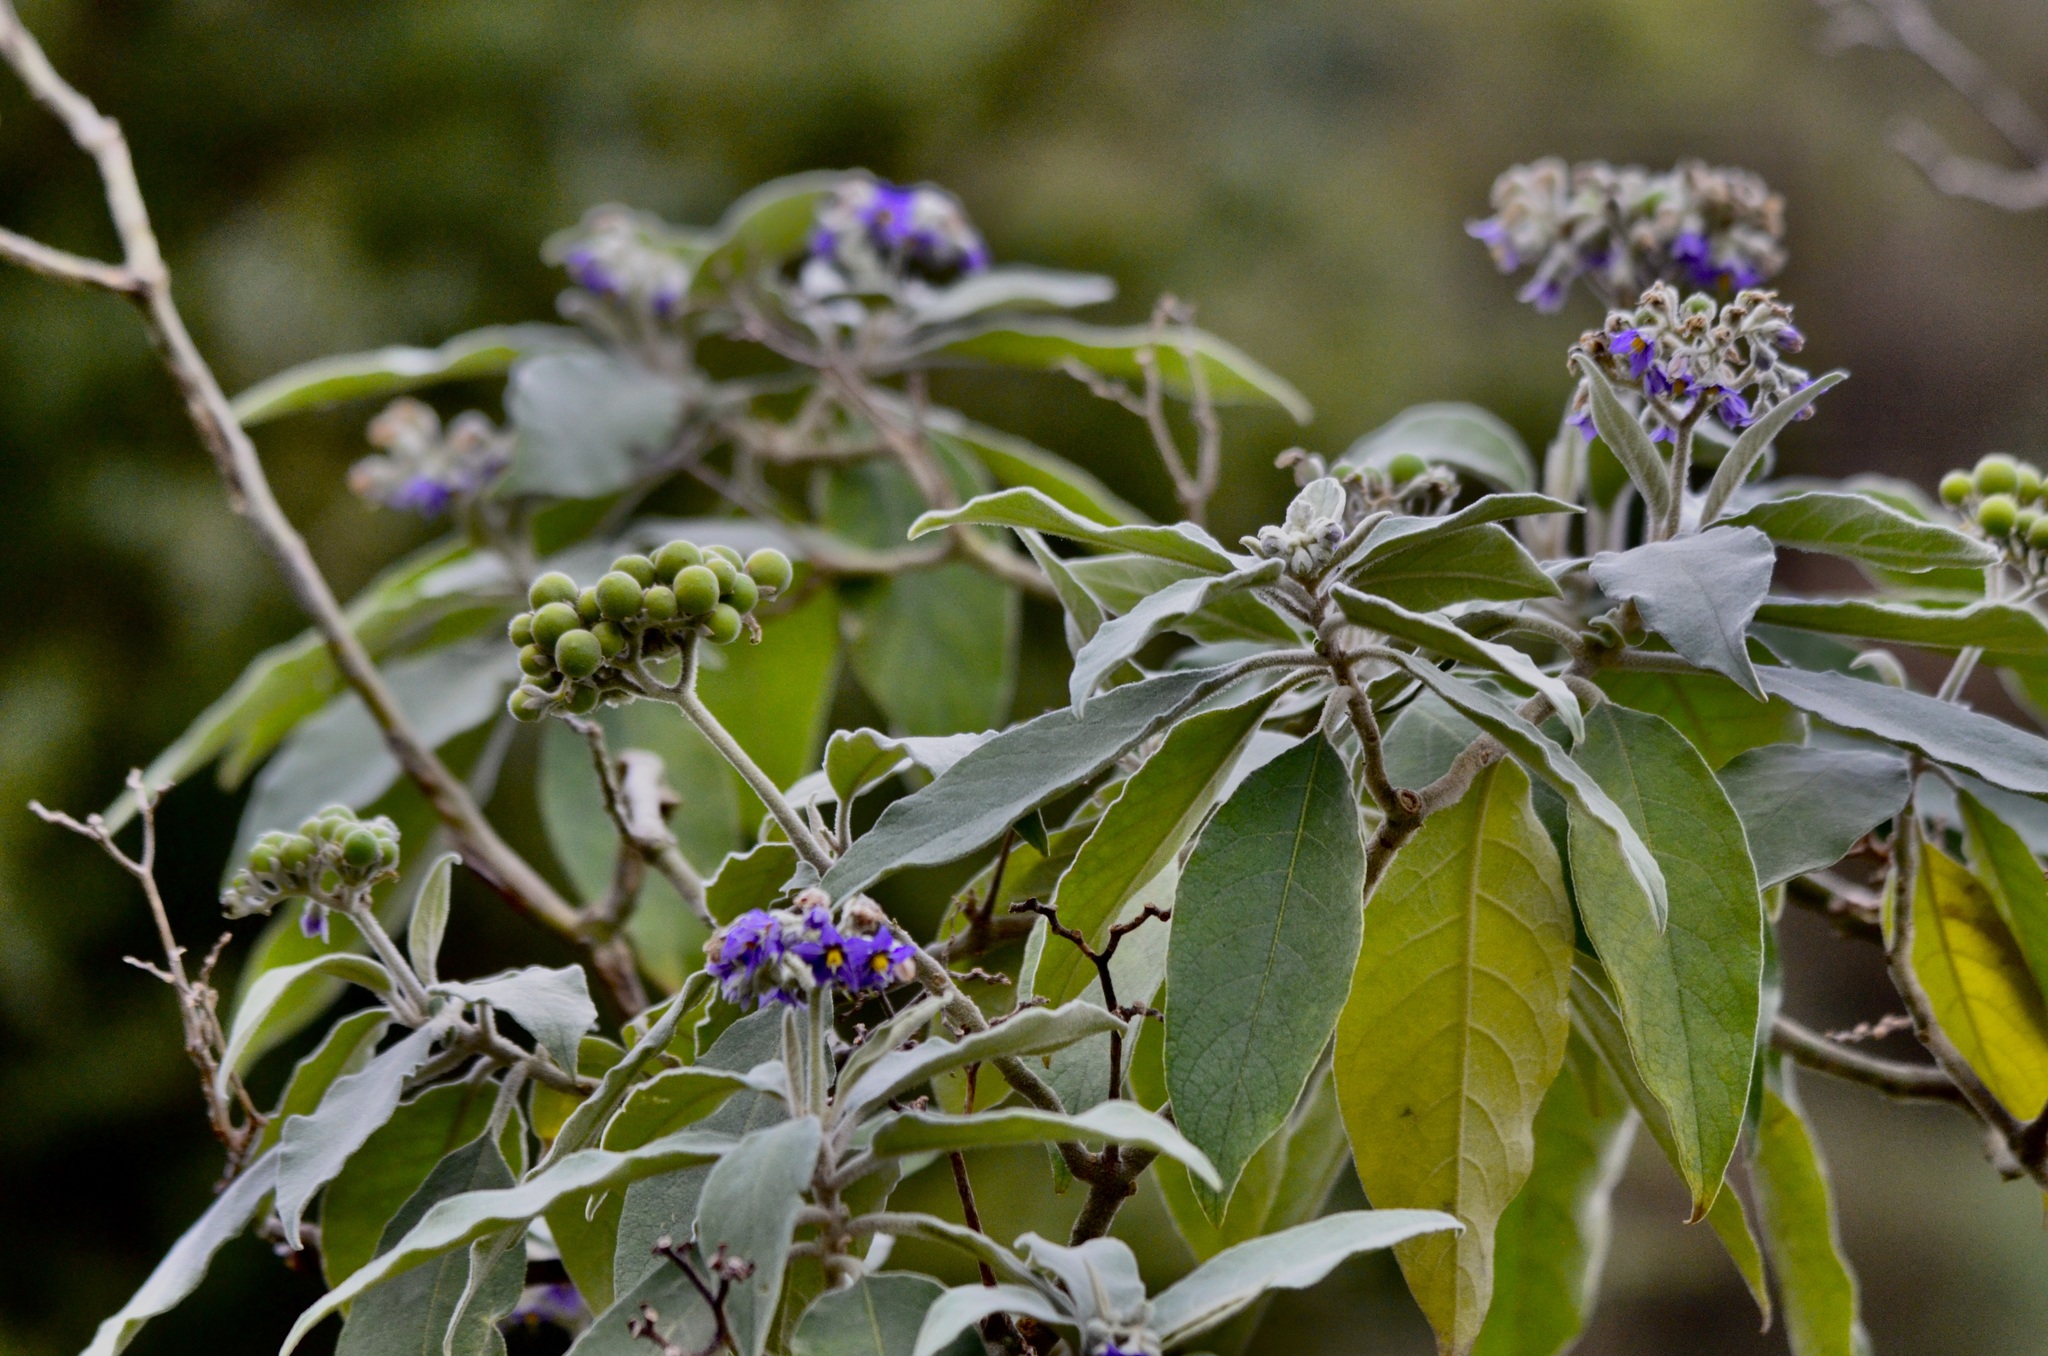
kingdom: Plantae
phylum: Tracheophyta
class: Magnoliopsida
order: Solanales
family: Solanaceae
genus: Solanum
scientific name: Solanum mauritianum
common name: Earleaf nightshade
